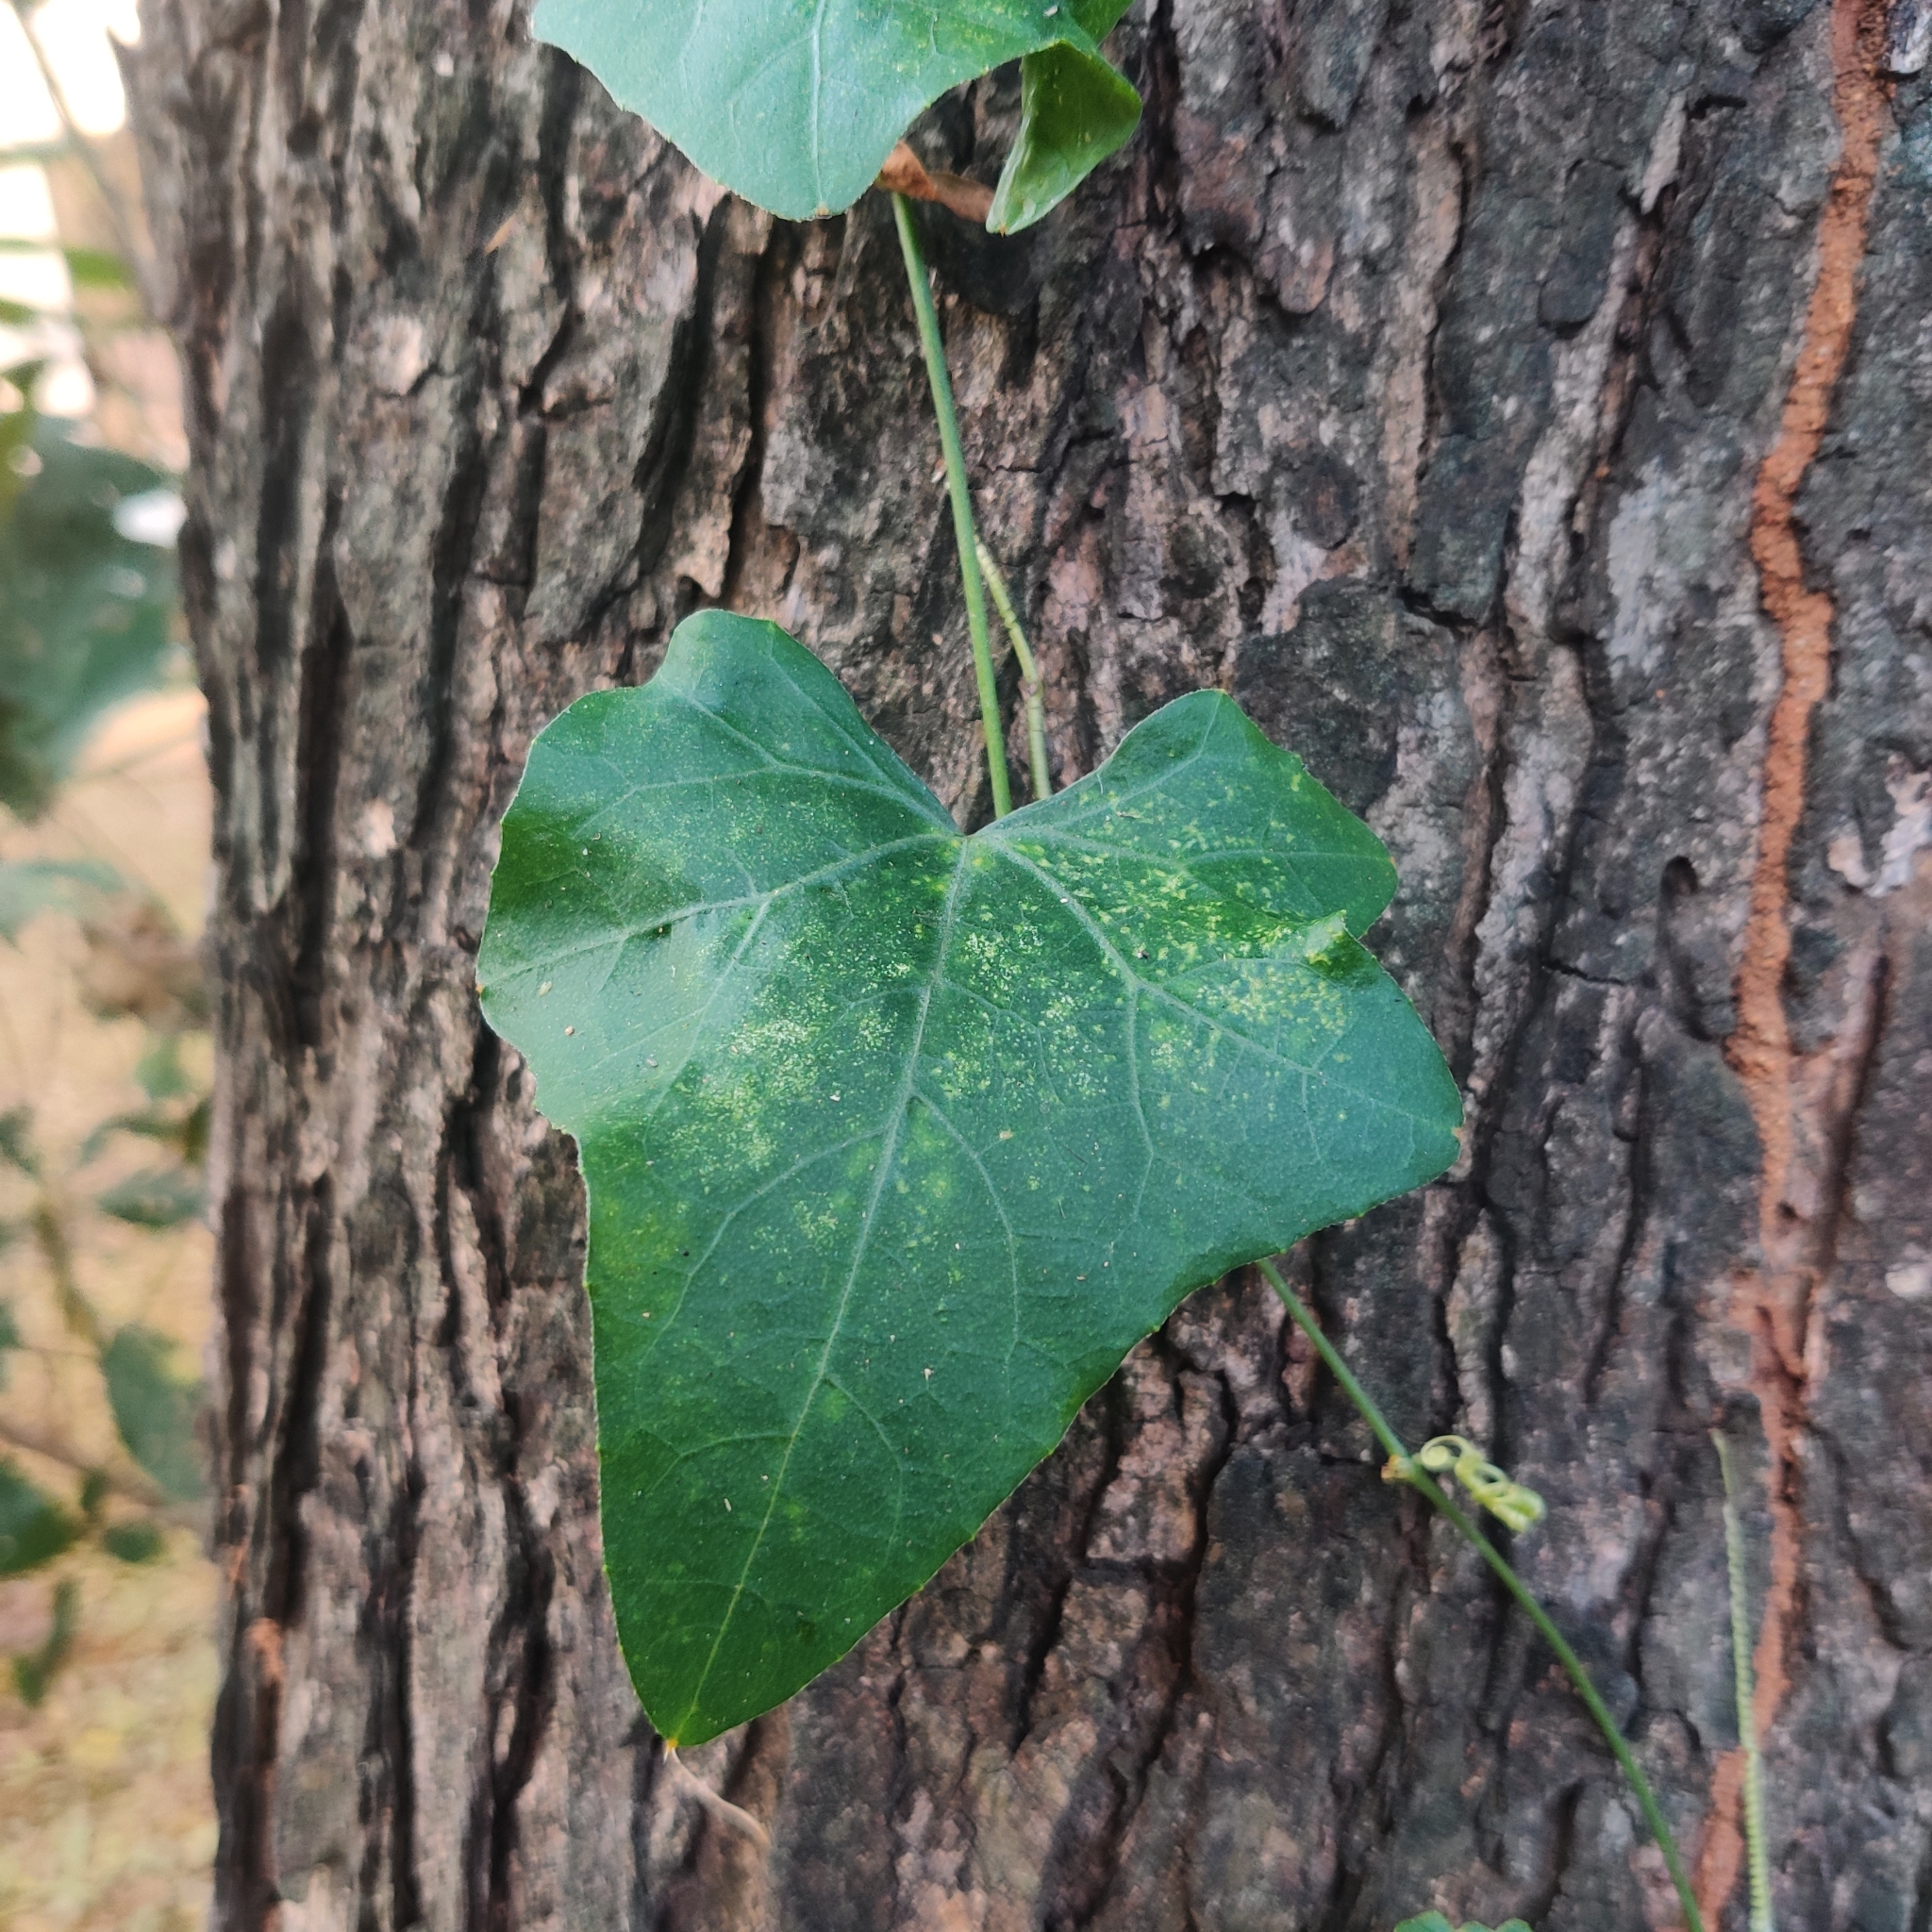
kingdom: Plantae
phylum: Tracheophyta
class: Magnoliopsida
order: Cucurbitales
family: Cucurbitaceae
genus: Coccinia
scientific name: Coccinia grandis
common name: Ivy gourd
